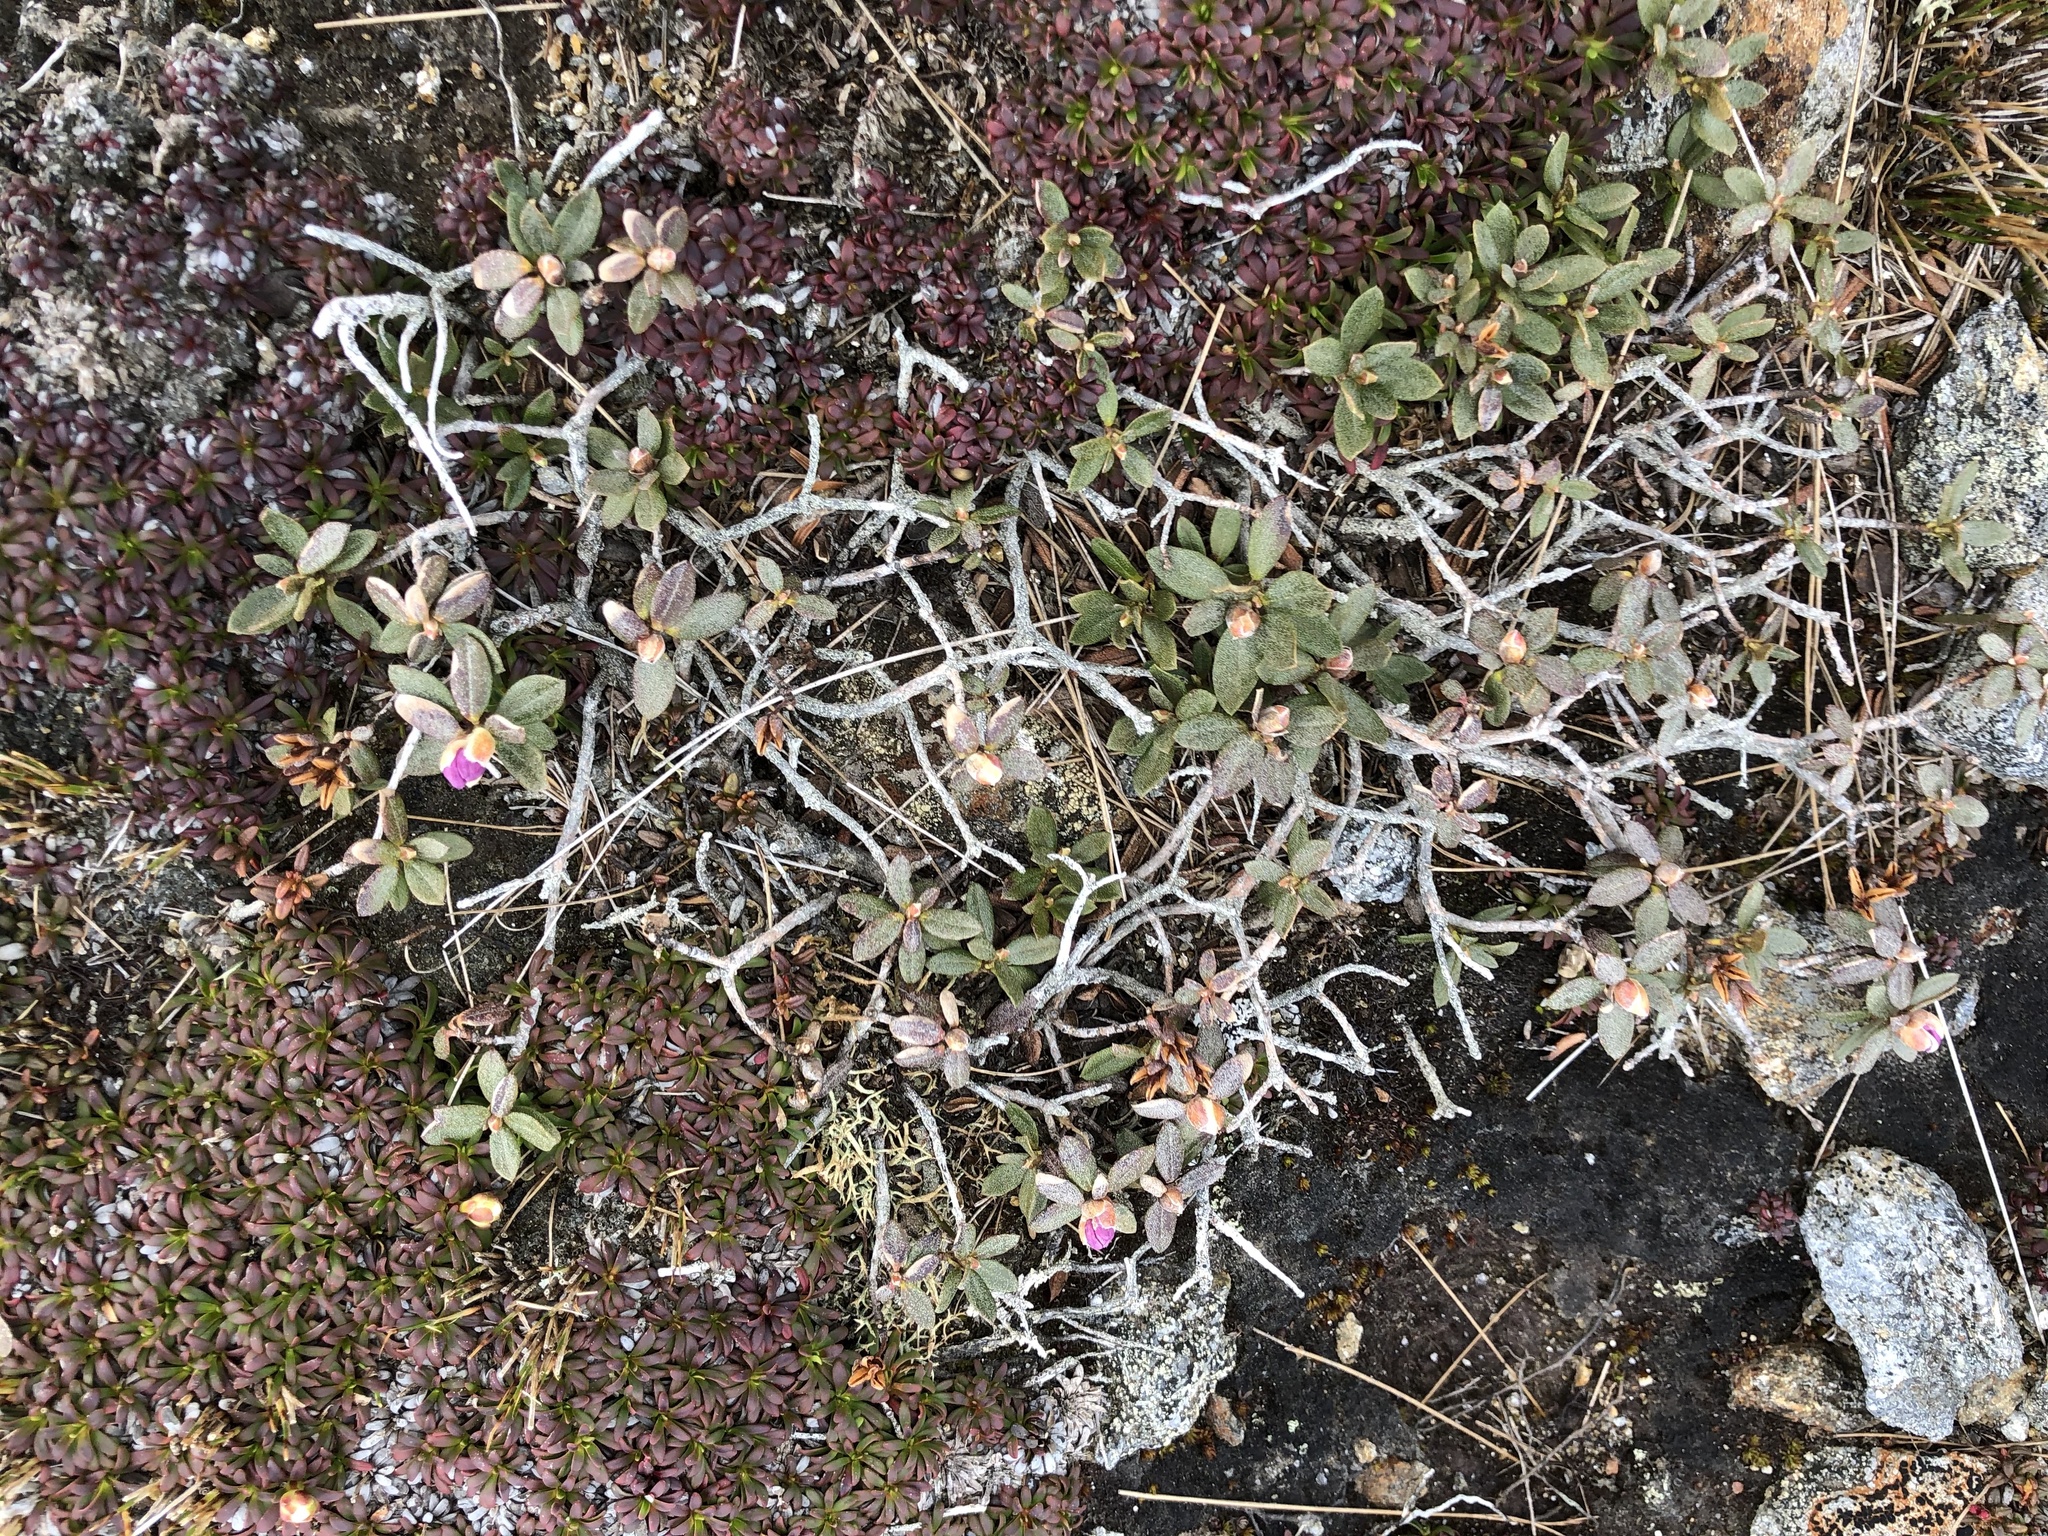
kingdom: Plantae
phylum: Tracheophyta
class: Magnoliopsida
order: Ericales
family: Ericaceae
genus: Rhododendron
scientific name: Rhododendron lapponicum
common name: Lapland rhododendron
